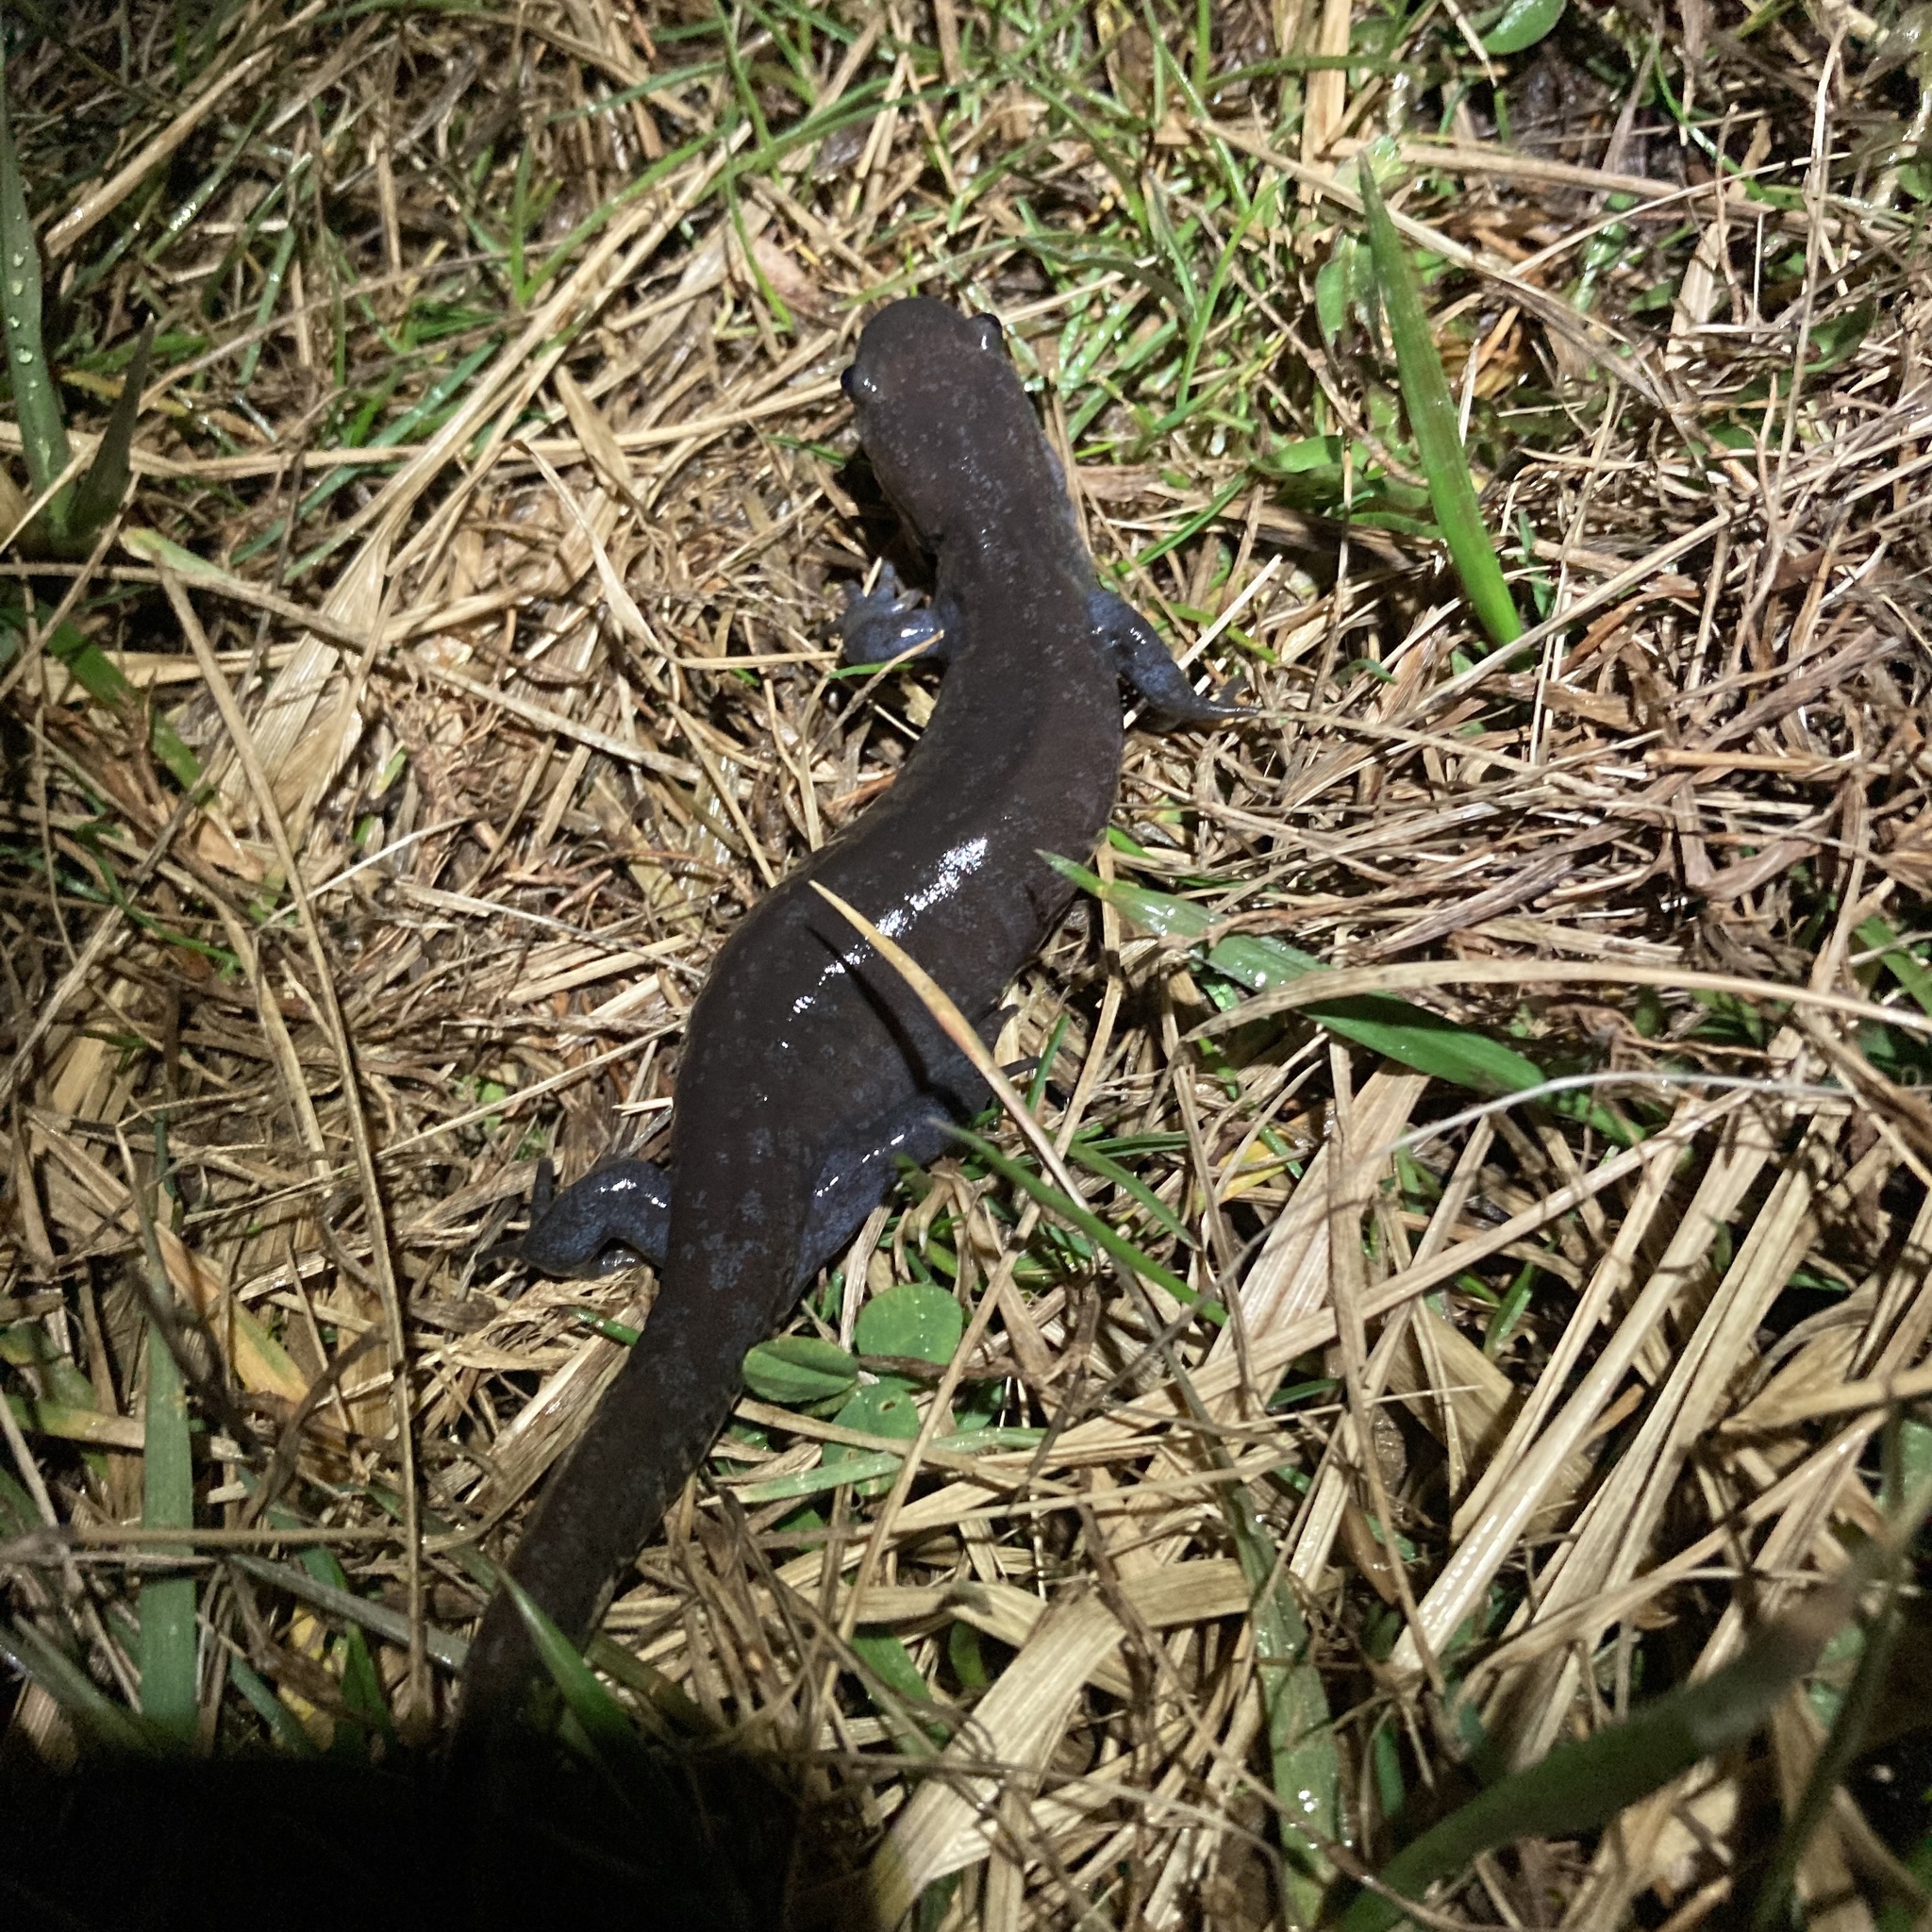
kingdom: Animalia
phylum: Chordata
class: Amphibia
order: Caudata
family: Ambystomatidae
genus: Ambystoma
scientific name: Ambystoma jeffersonianum
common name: Jefferson salamander
